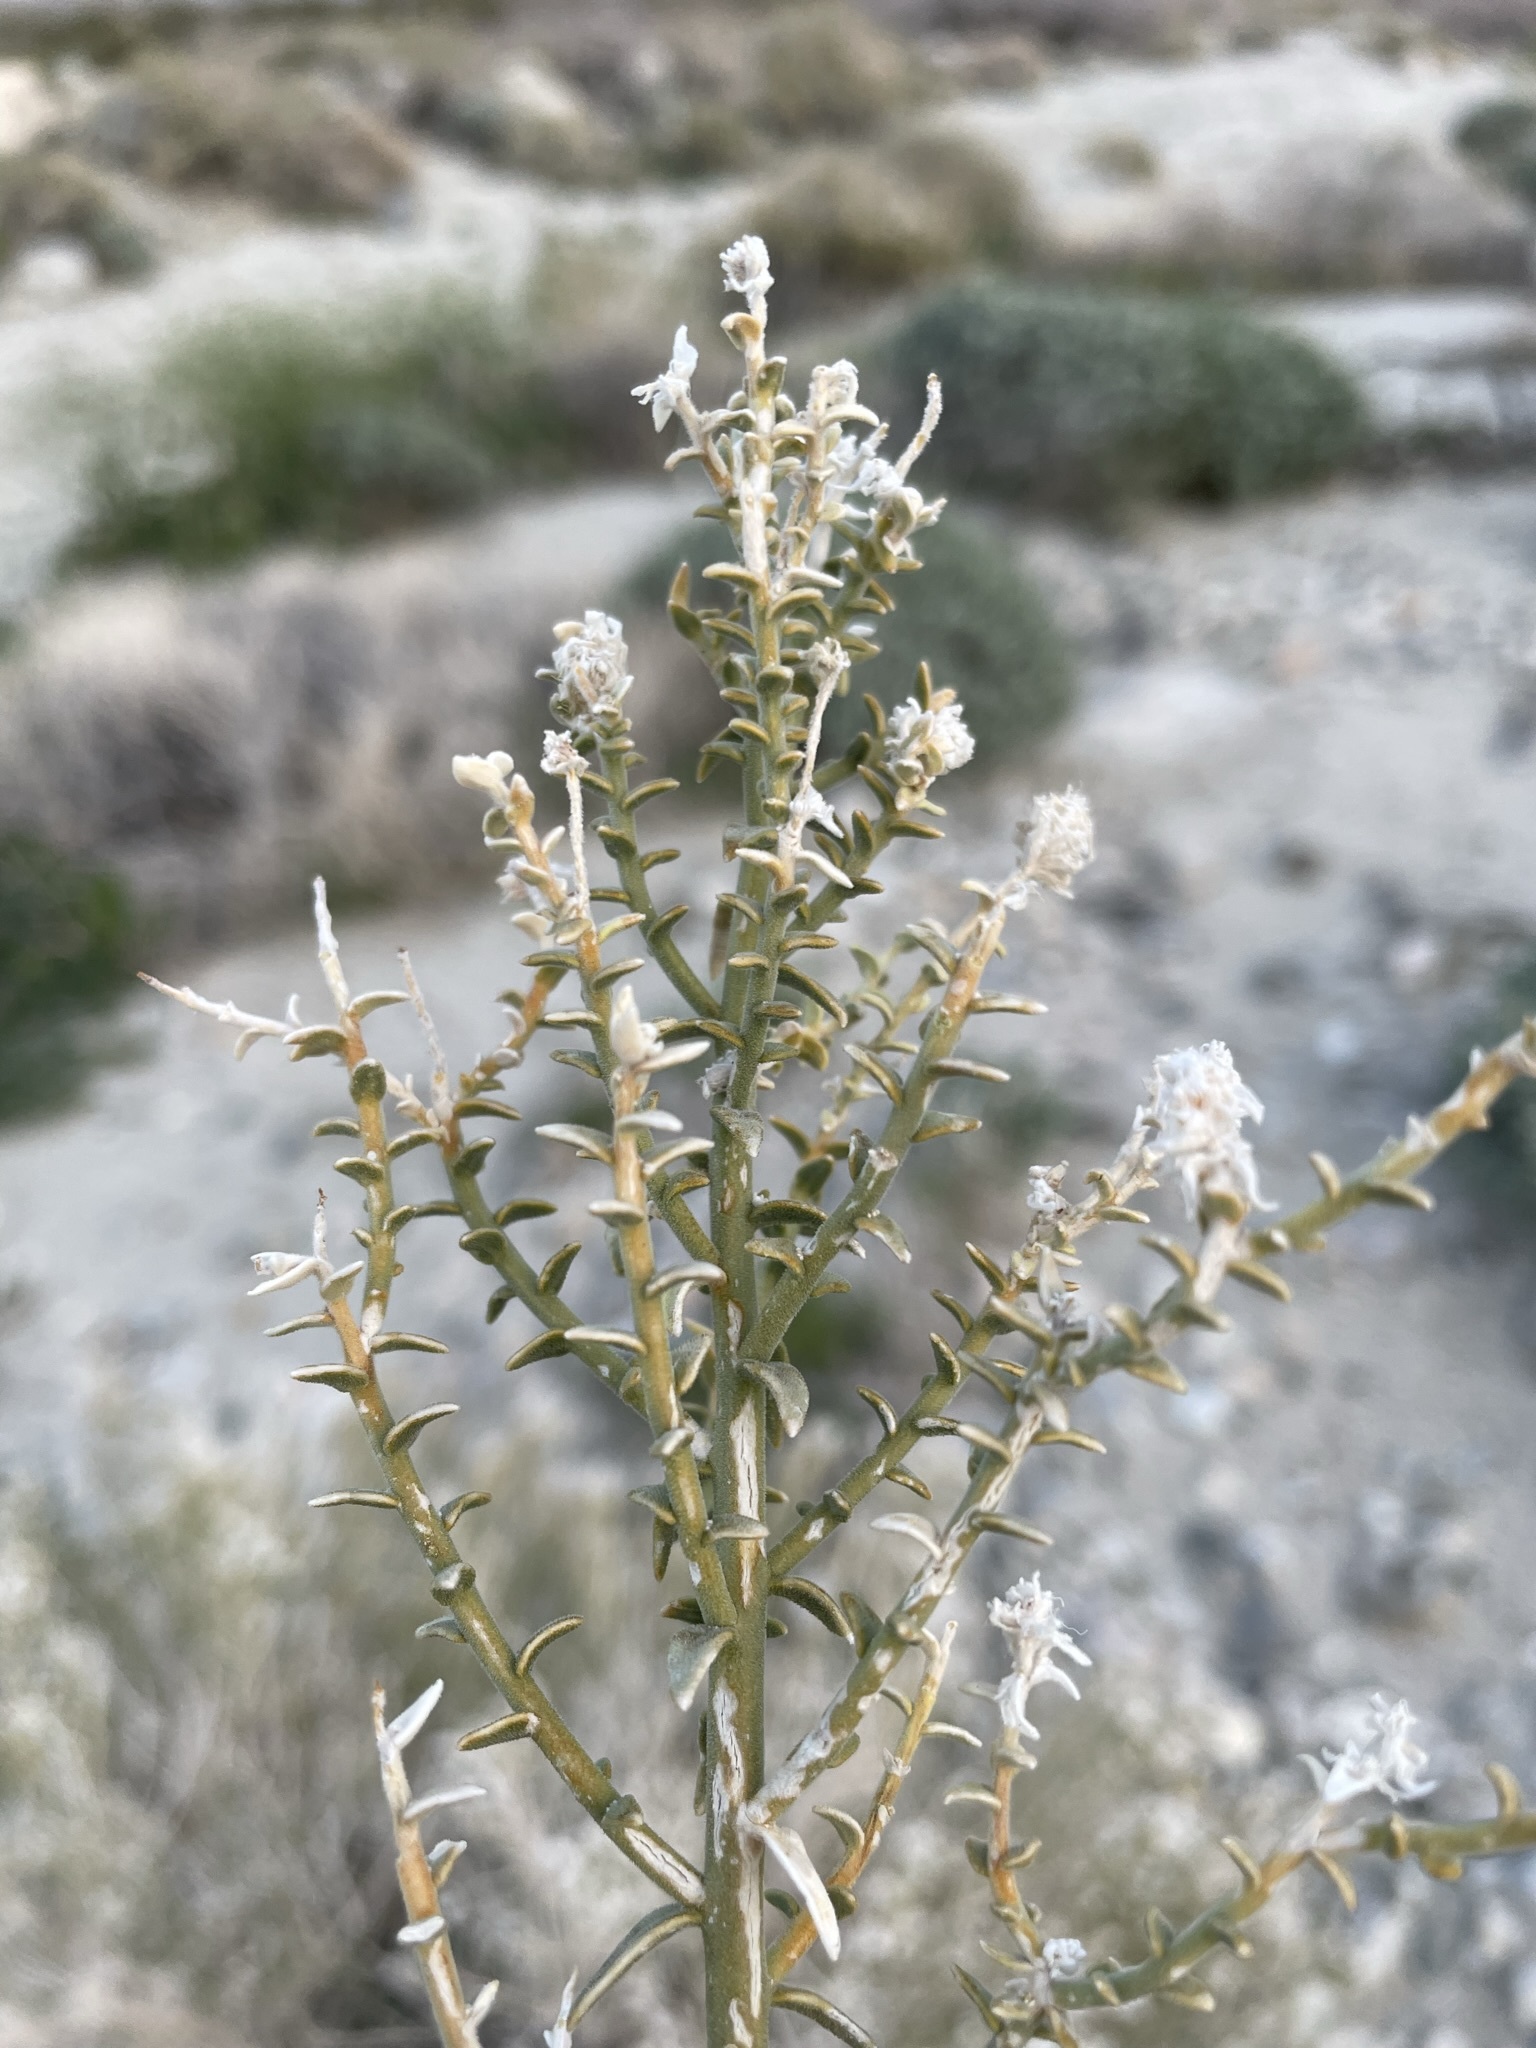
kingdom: Plantae
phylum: Tracheophyta
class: Magnoliopsida
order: Cornales
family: Loasaceae
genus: Petalonyx
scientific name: Petalonyx thurberi
